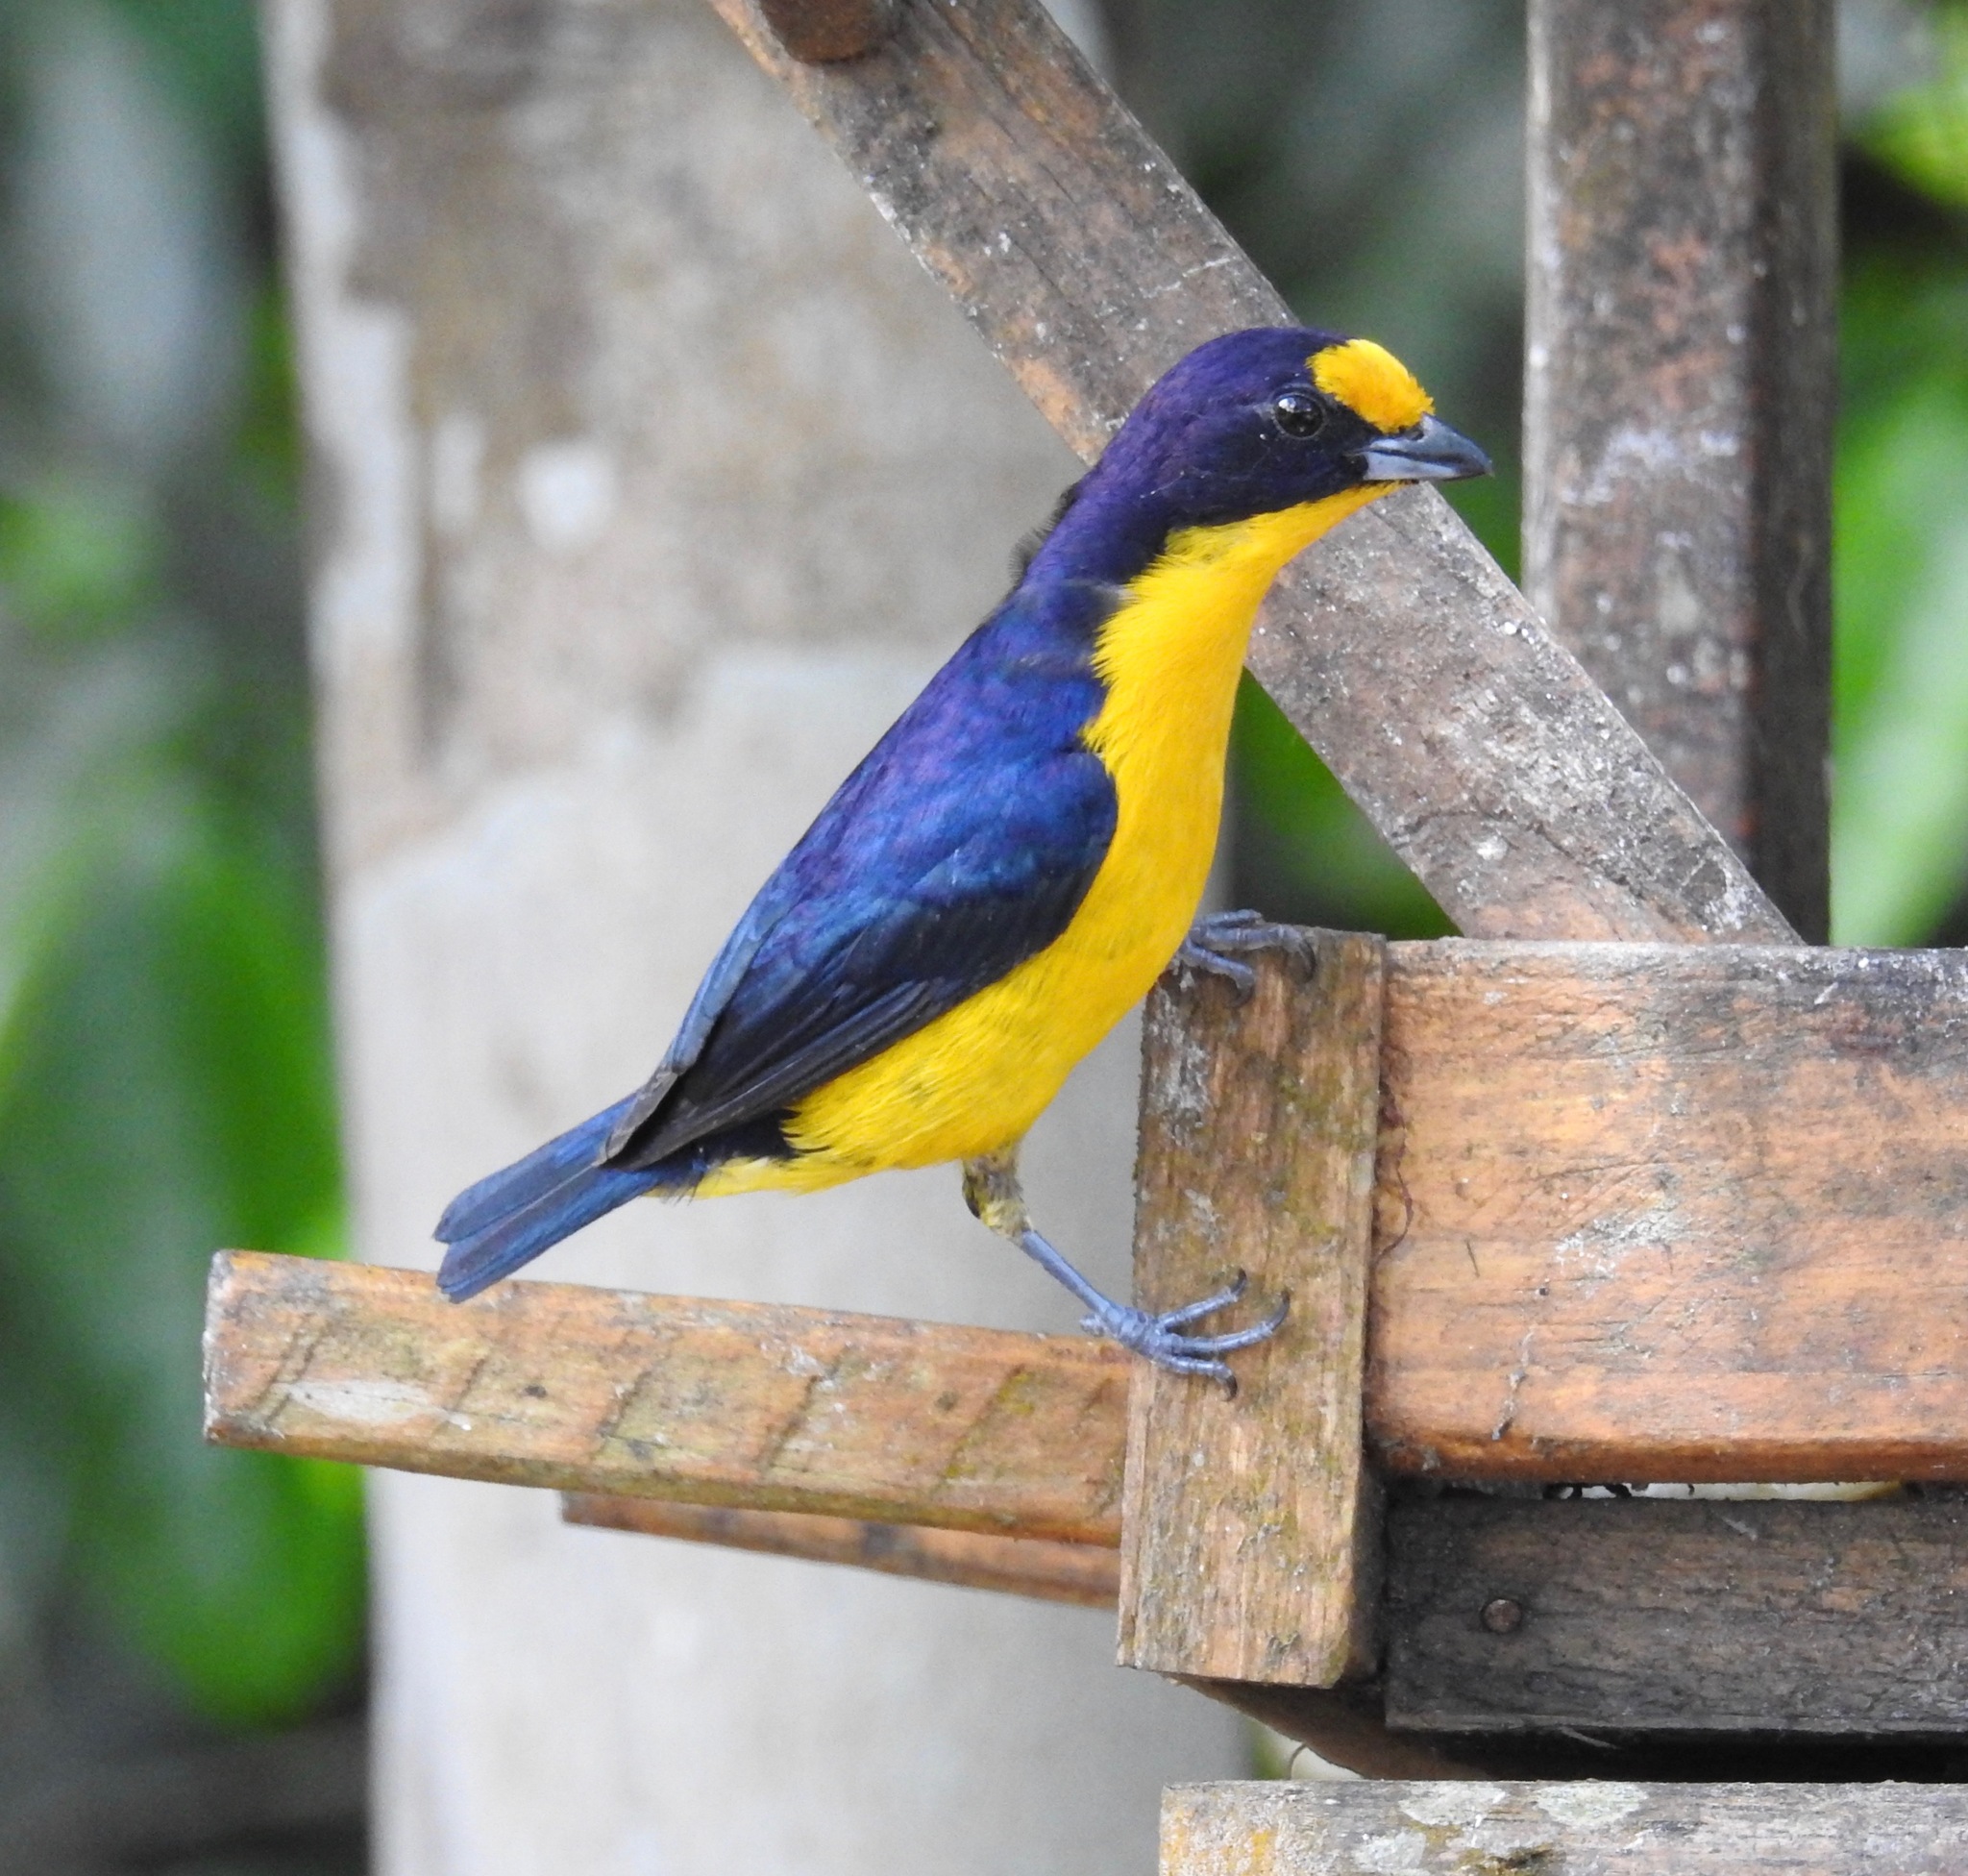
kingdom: Animalia
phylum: Chordata
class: Aves
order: Passeriformes
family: Fringillidae
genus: Euphonia
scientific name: Euphonia violacea
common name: Violaceous euphonia
